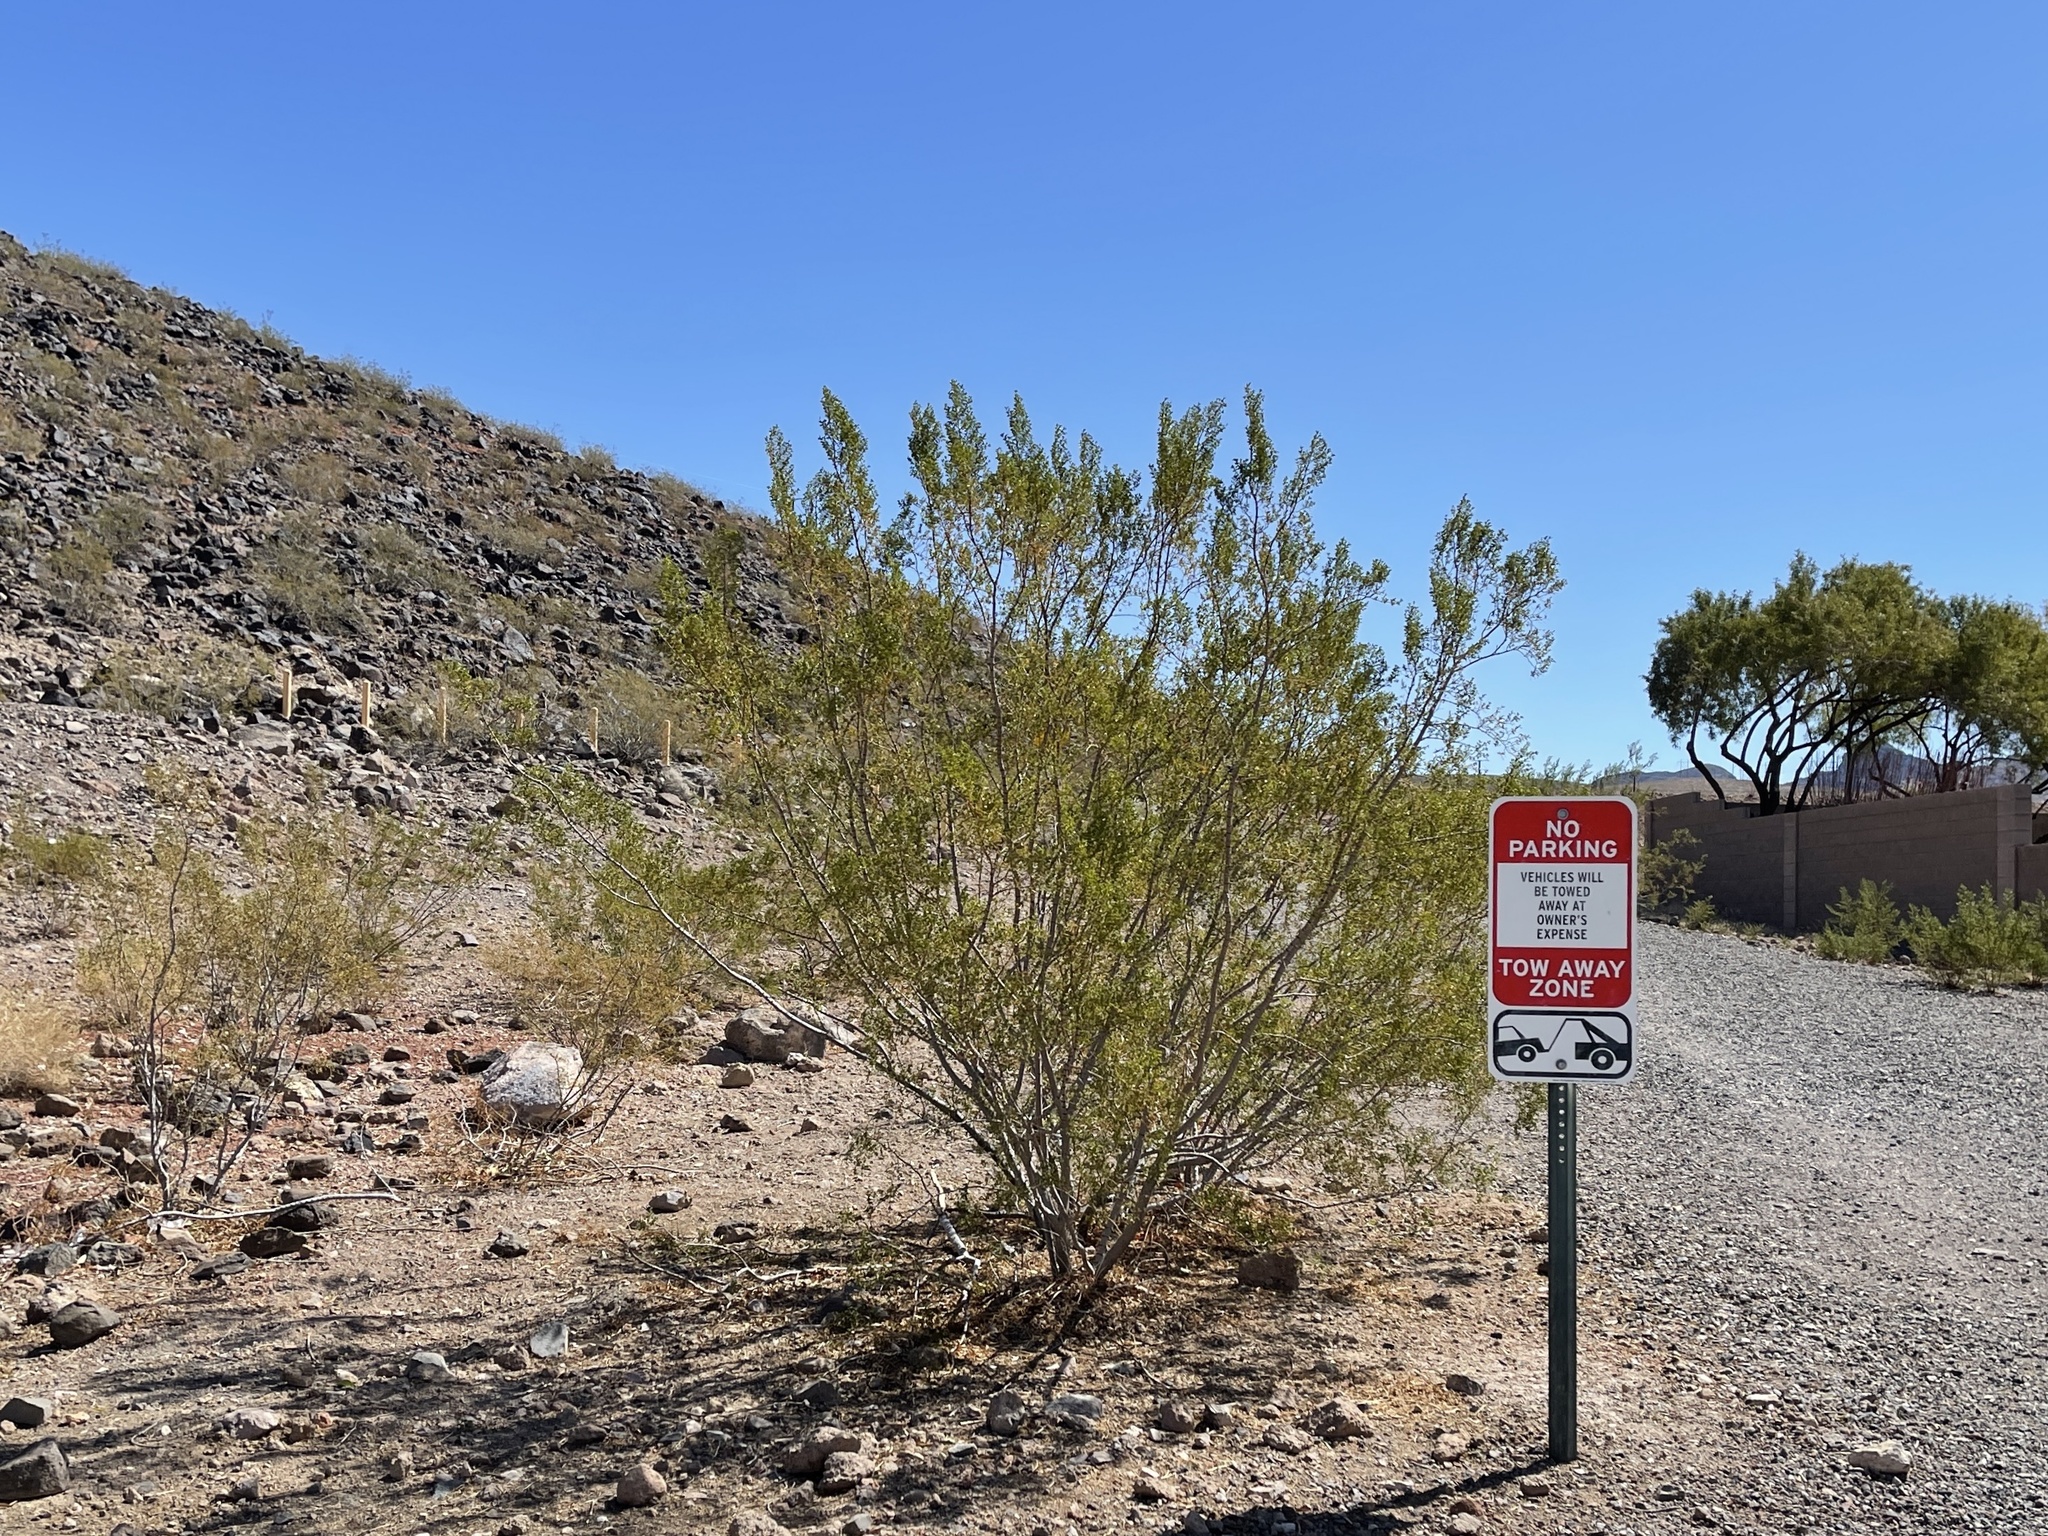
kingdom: Plantae
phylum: Tracheophyta
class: Magnoliopsida
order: Zygophyllales
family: Zygophyllaceae
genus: Larrea
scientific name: Larrea tridentata
